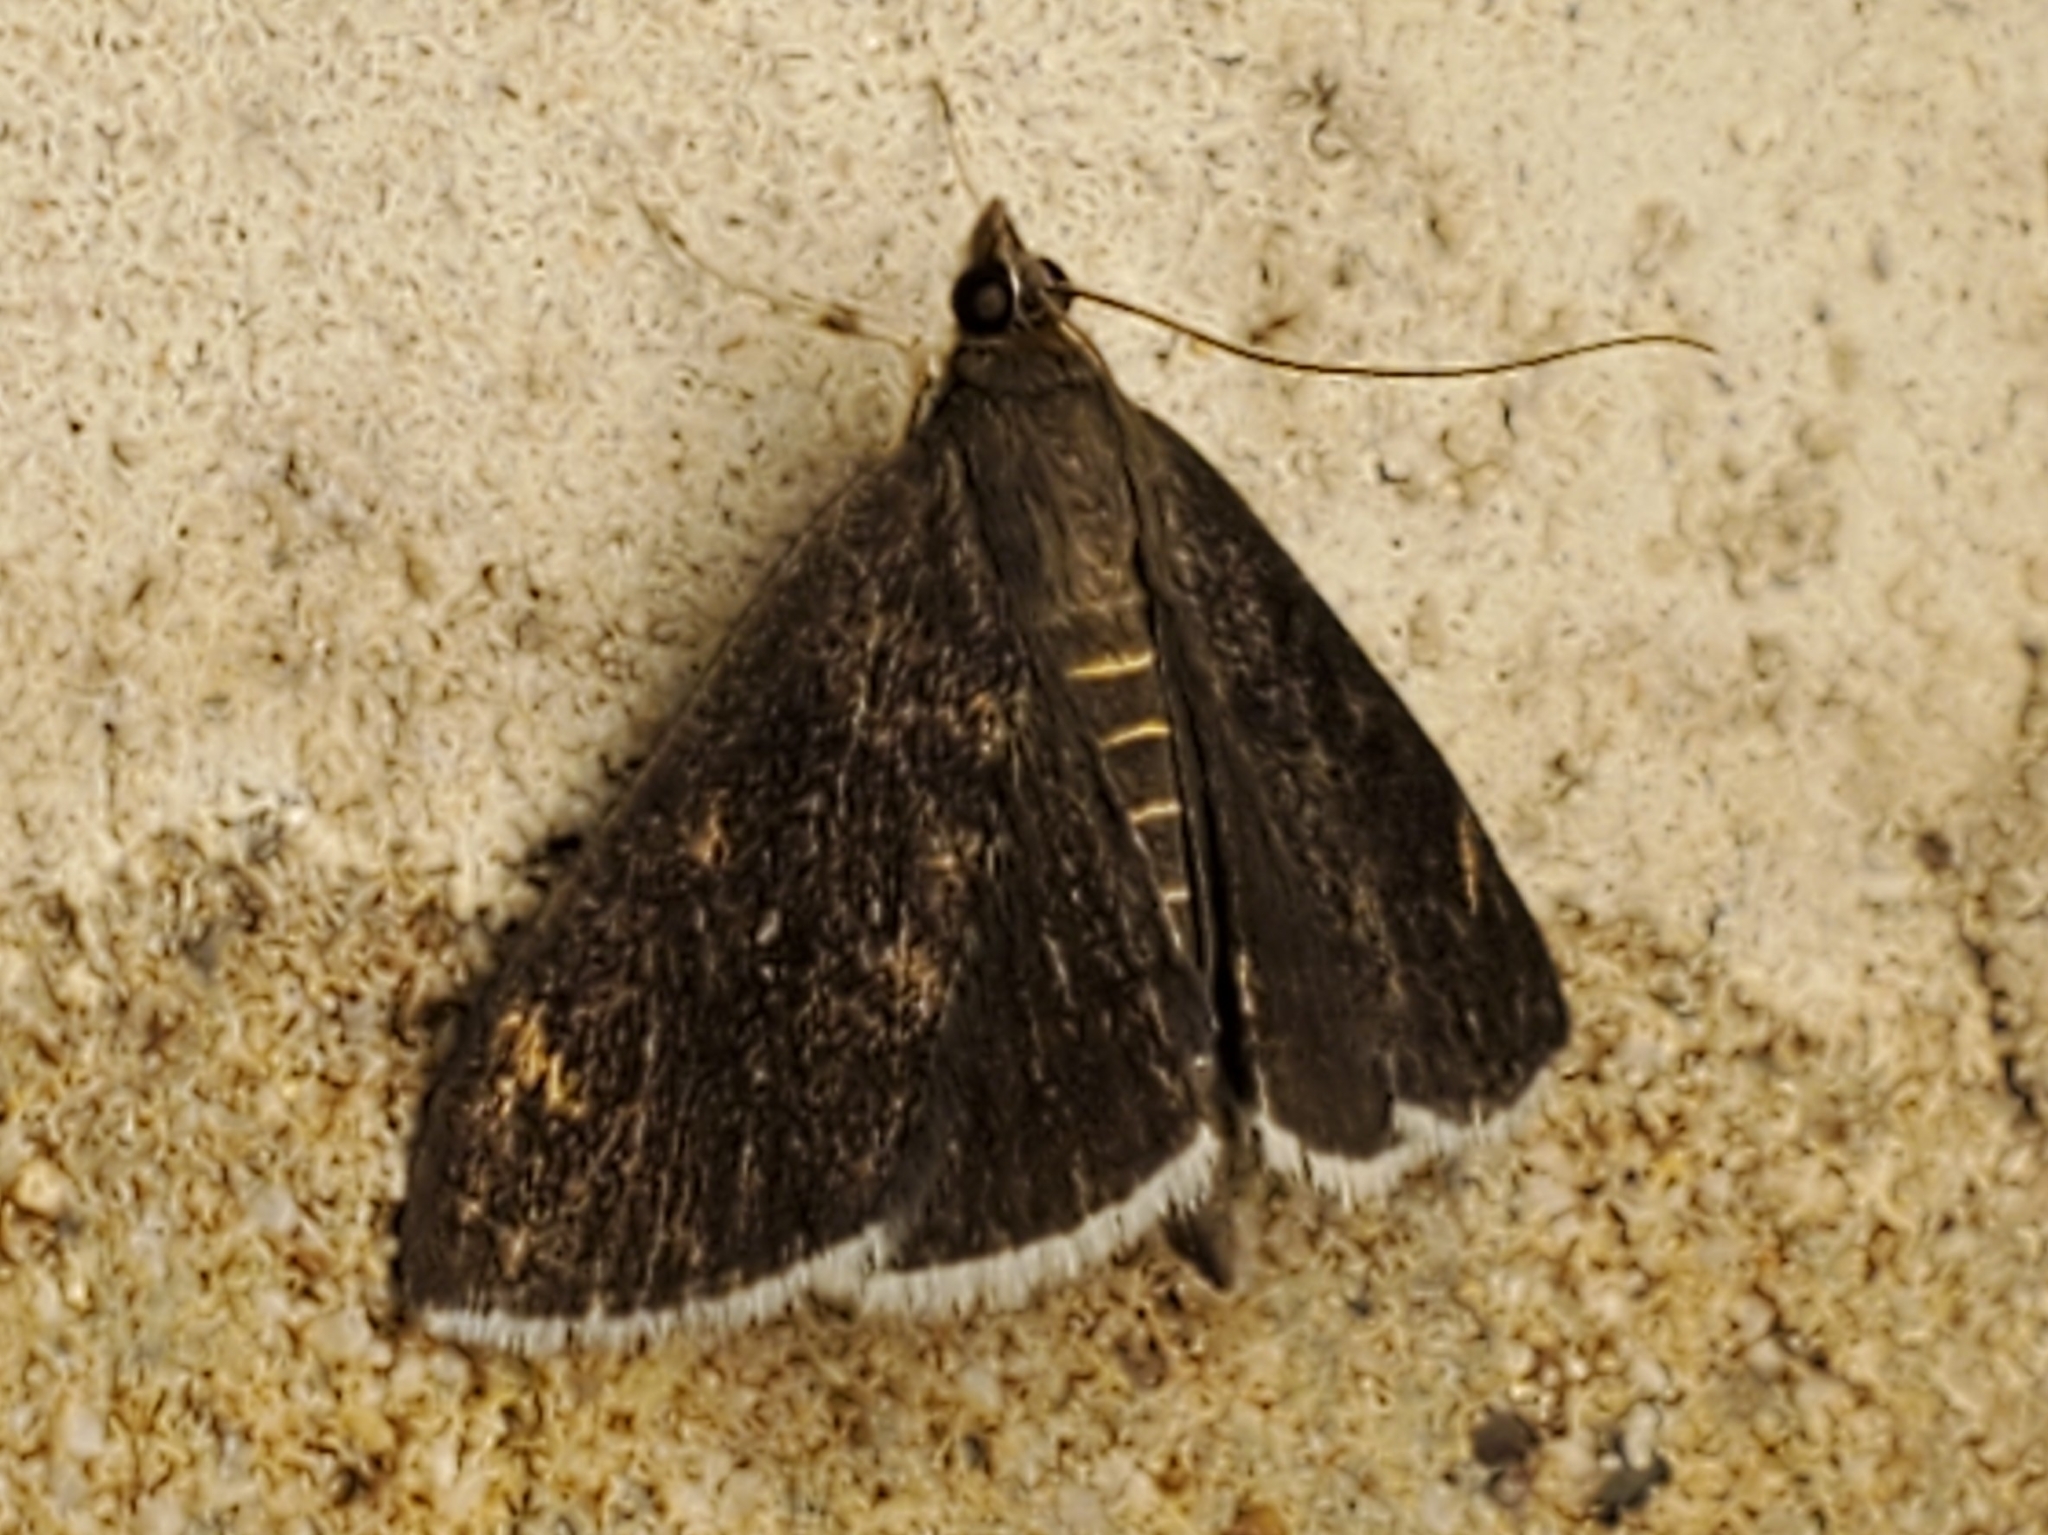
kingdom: Animalia
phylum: Arthropoda
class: Insecta
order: Lepidoptera
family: Crambidae
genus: Pyrausta
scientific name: Pyrausta niveicilialis
